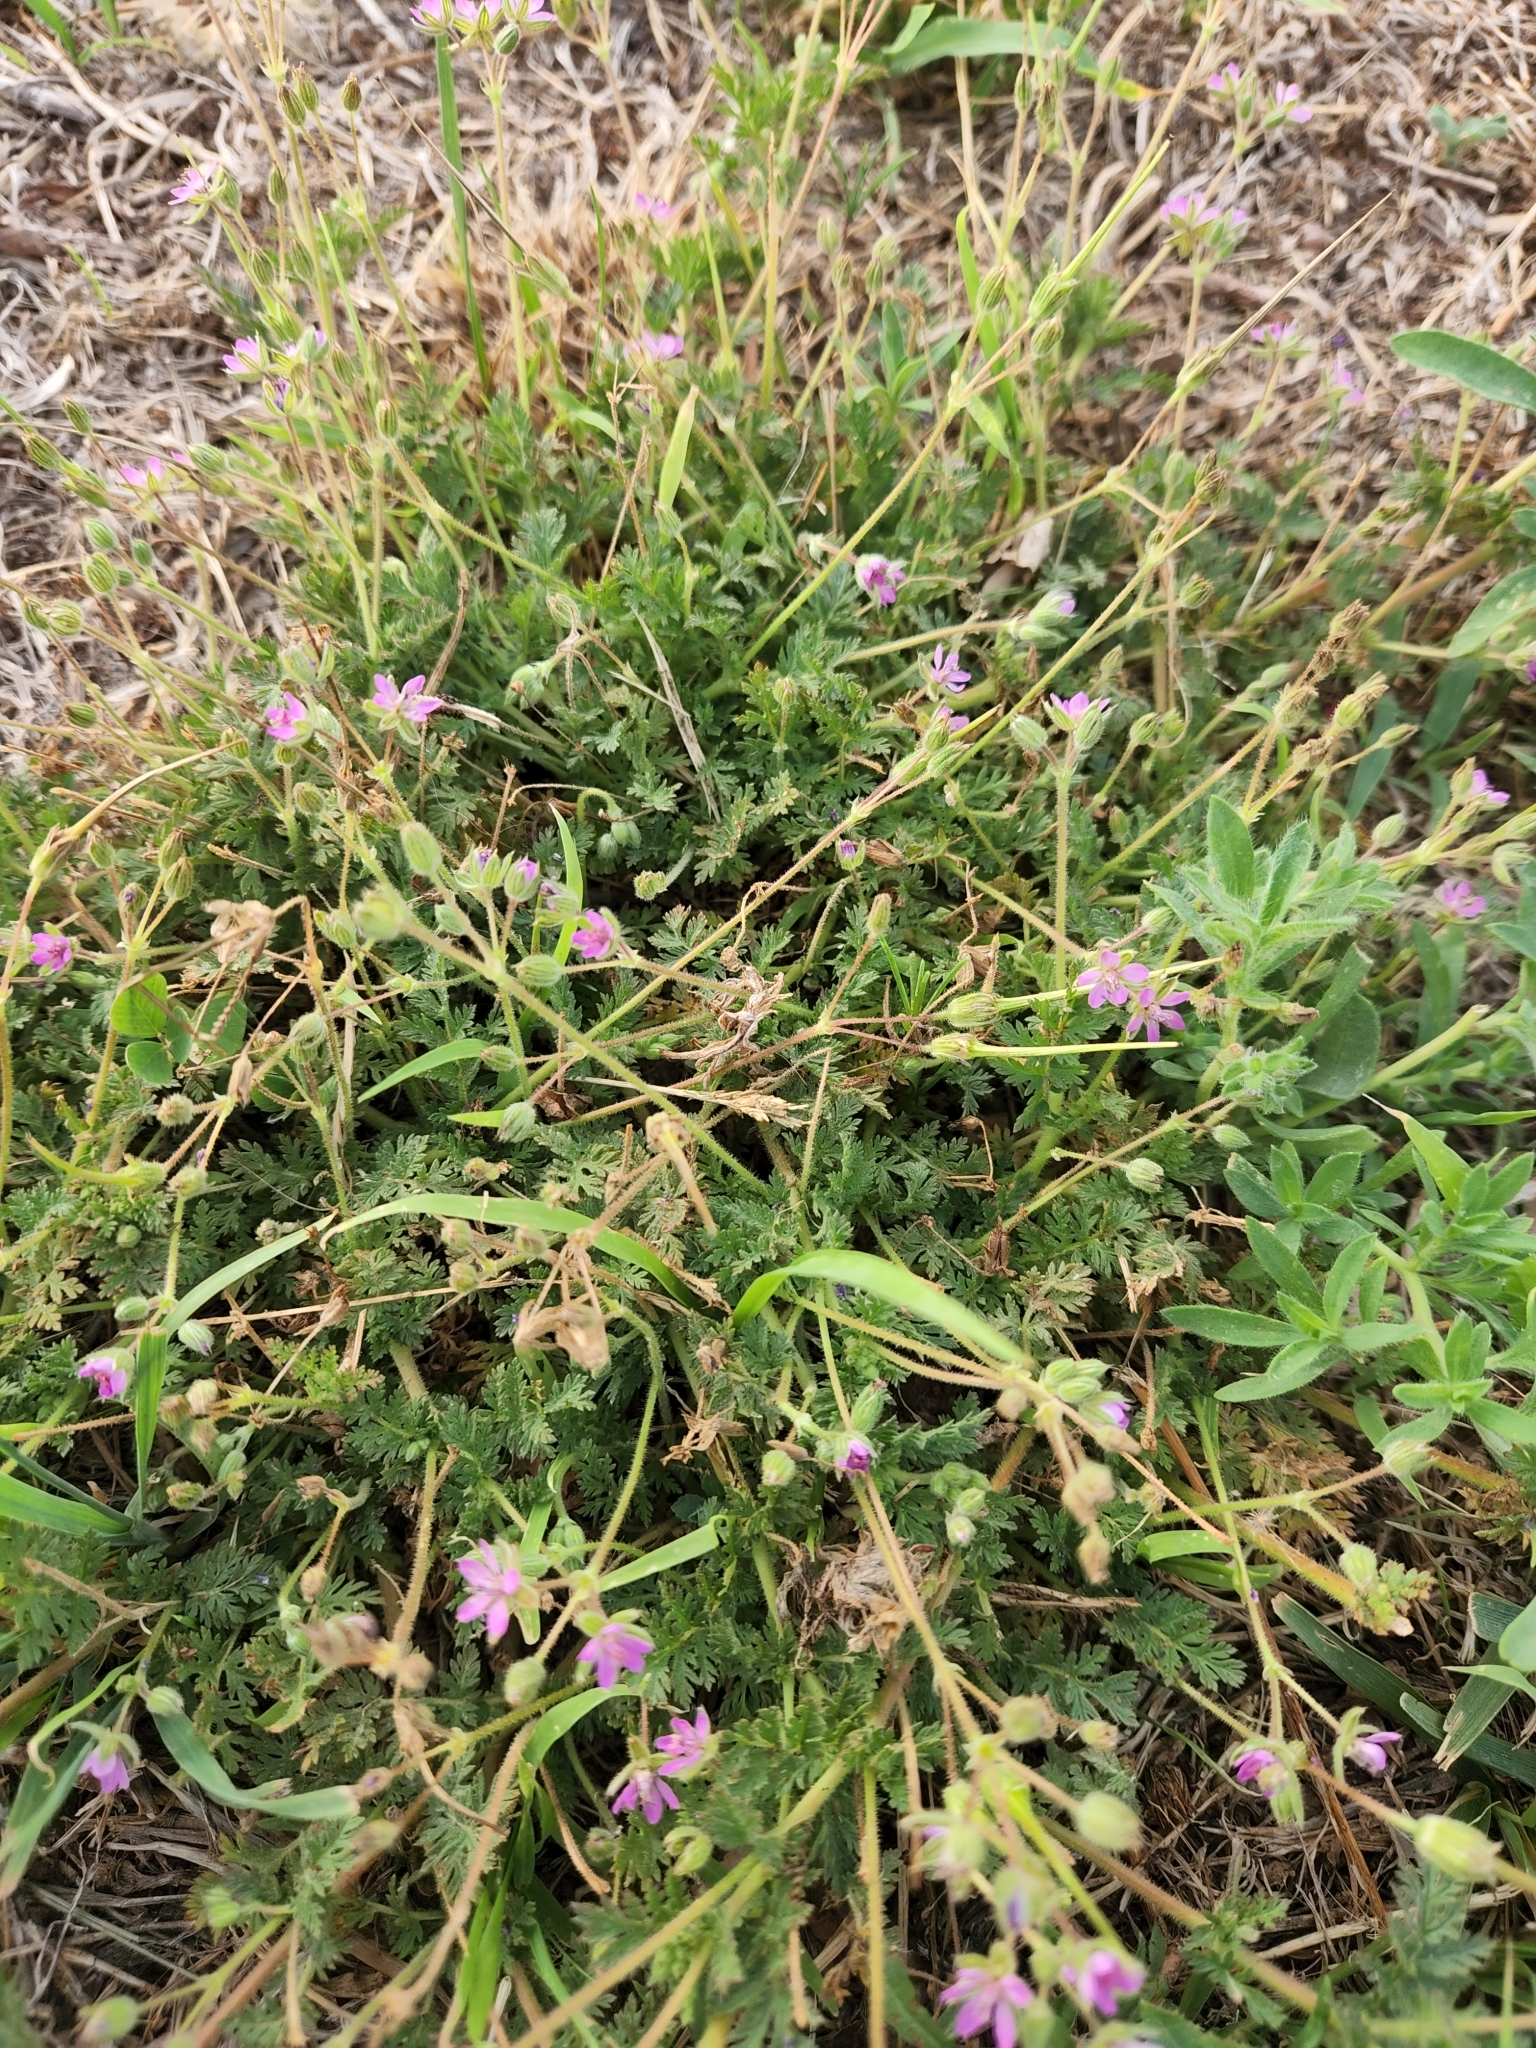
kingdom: Plantae
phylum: Tracheophyta
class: Magnoliopsida
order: Geraniales
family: Geraniaceae
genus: Erodium
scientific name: Erodium cicutarium
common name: Common stork's-bill
